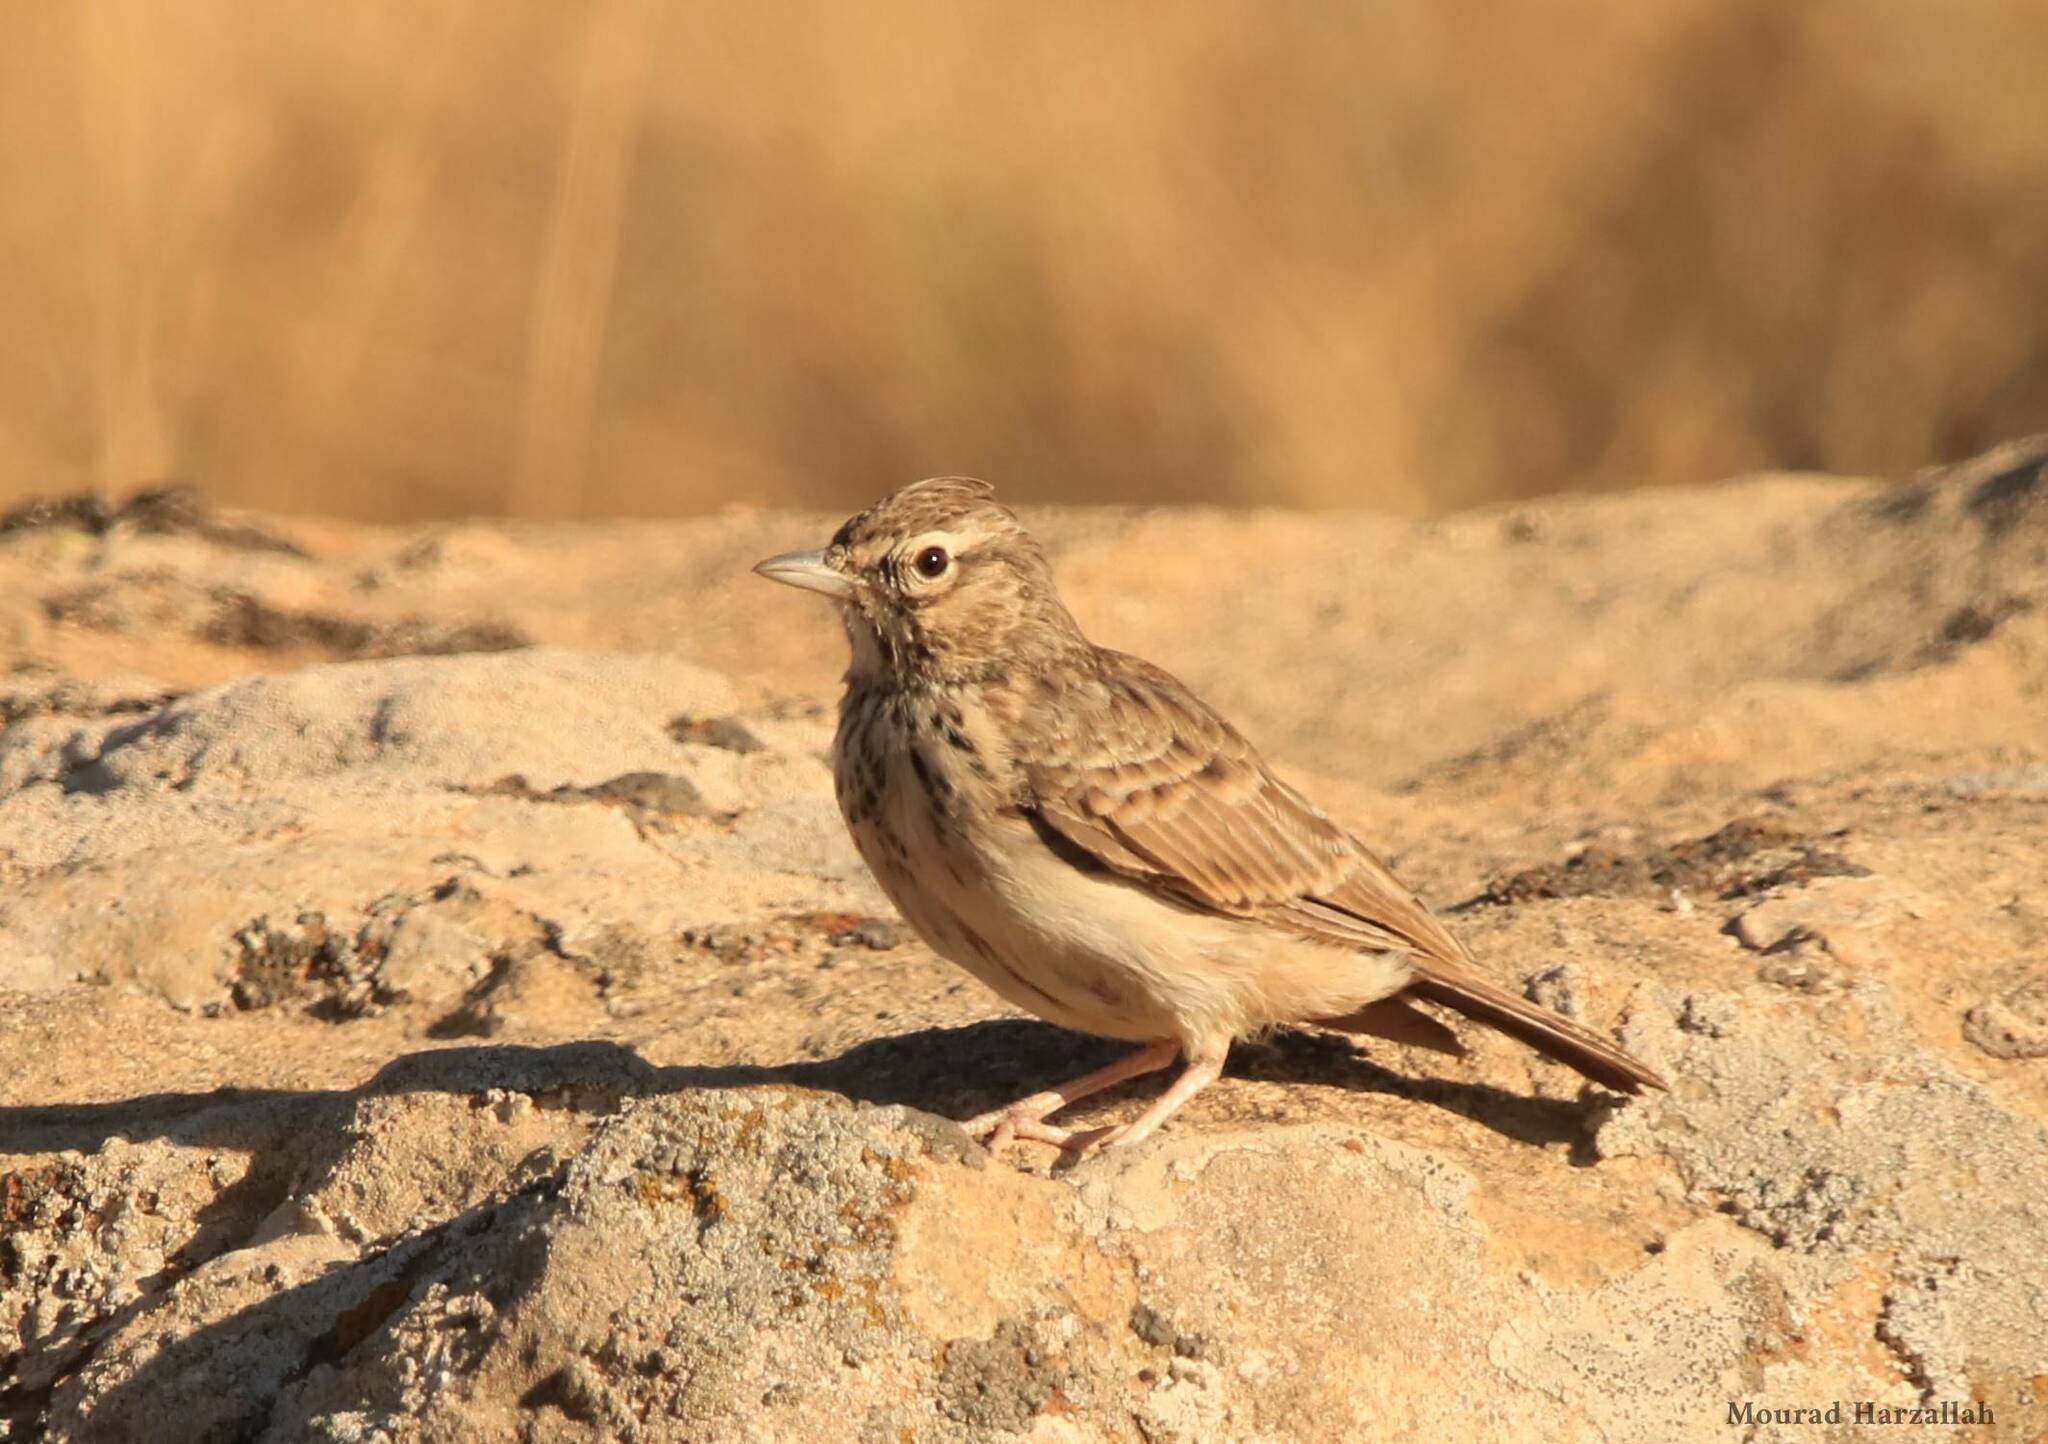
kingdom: Animalia
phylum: Chordata
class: Aves
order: Passeriformes
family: Alaudidae
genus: Galerida
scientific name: Galerida theklae
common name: Thekla lark
